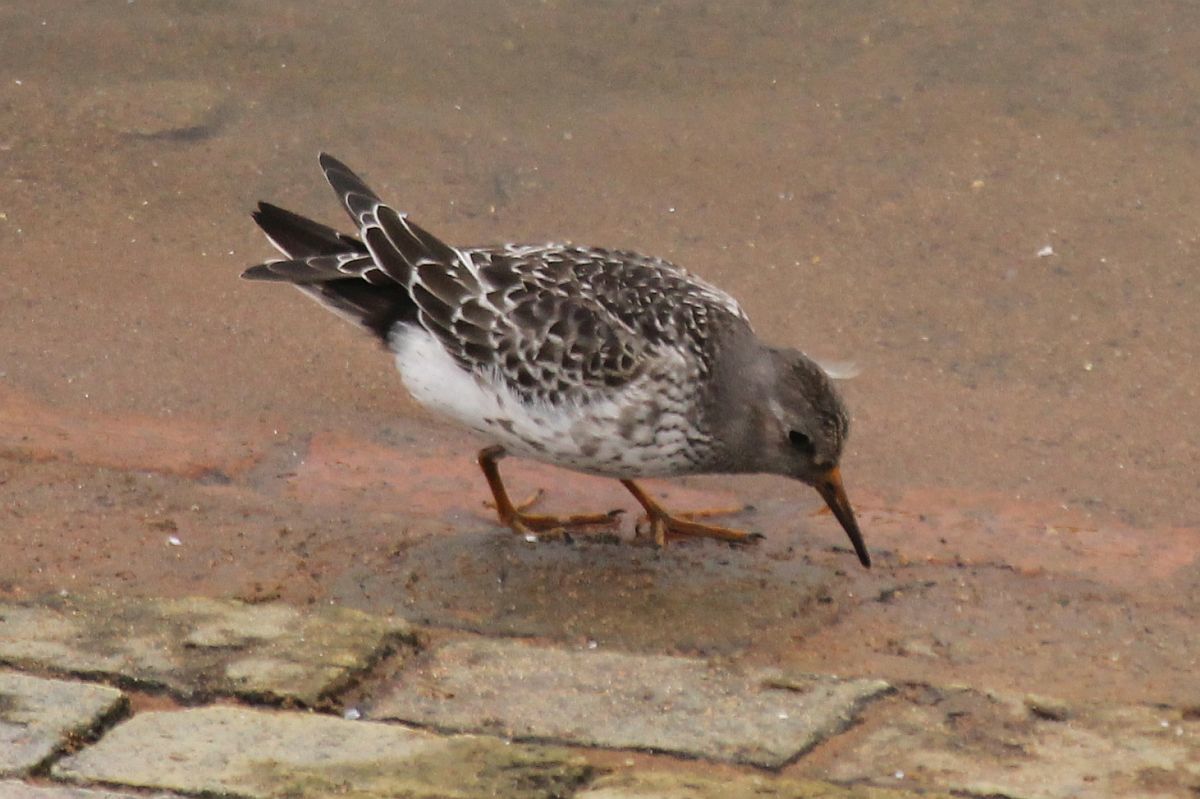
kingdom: Animalia
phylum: Chordata
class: Aves
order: Charadriiformes
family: Scolopacidae
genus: Calidris
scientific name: Calidris maritima
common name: Purple sandpiper
